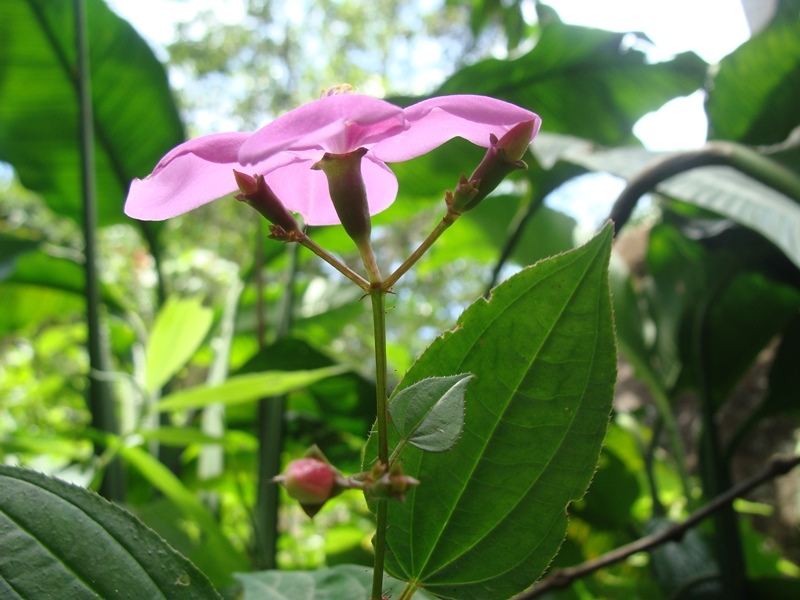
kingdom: Plantae
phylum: Tracheophyta
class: Magnoliopsida
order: Myrtales
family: Melastomataceae
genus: Arthrostemma
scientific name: Arthrostemma ciliatum
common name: Everblooming eavender
